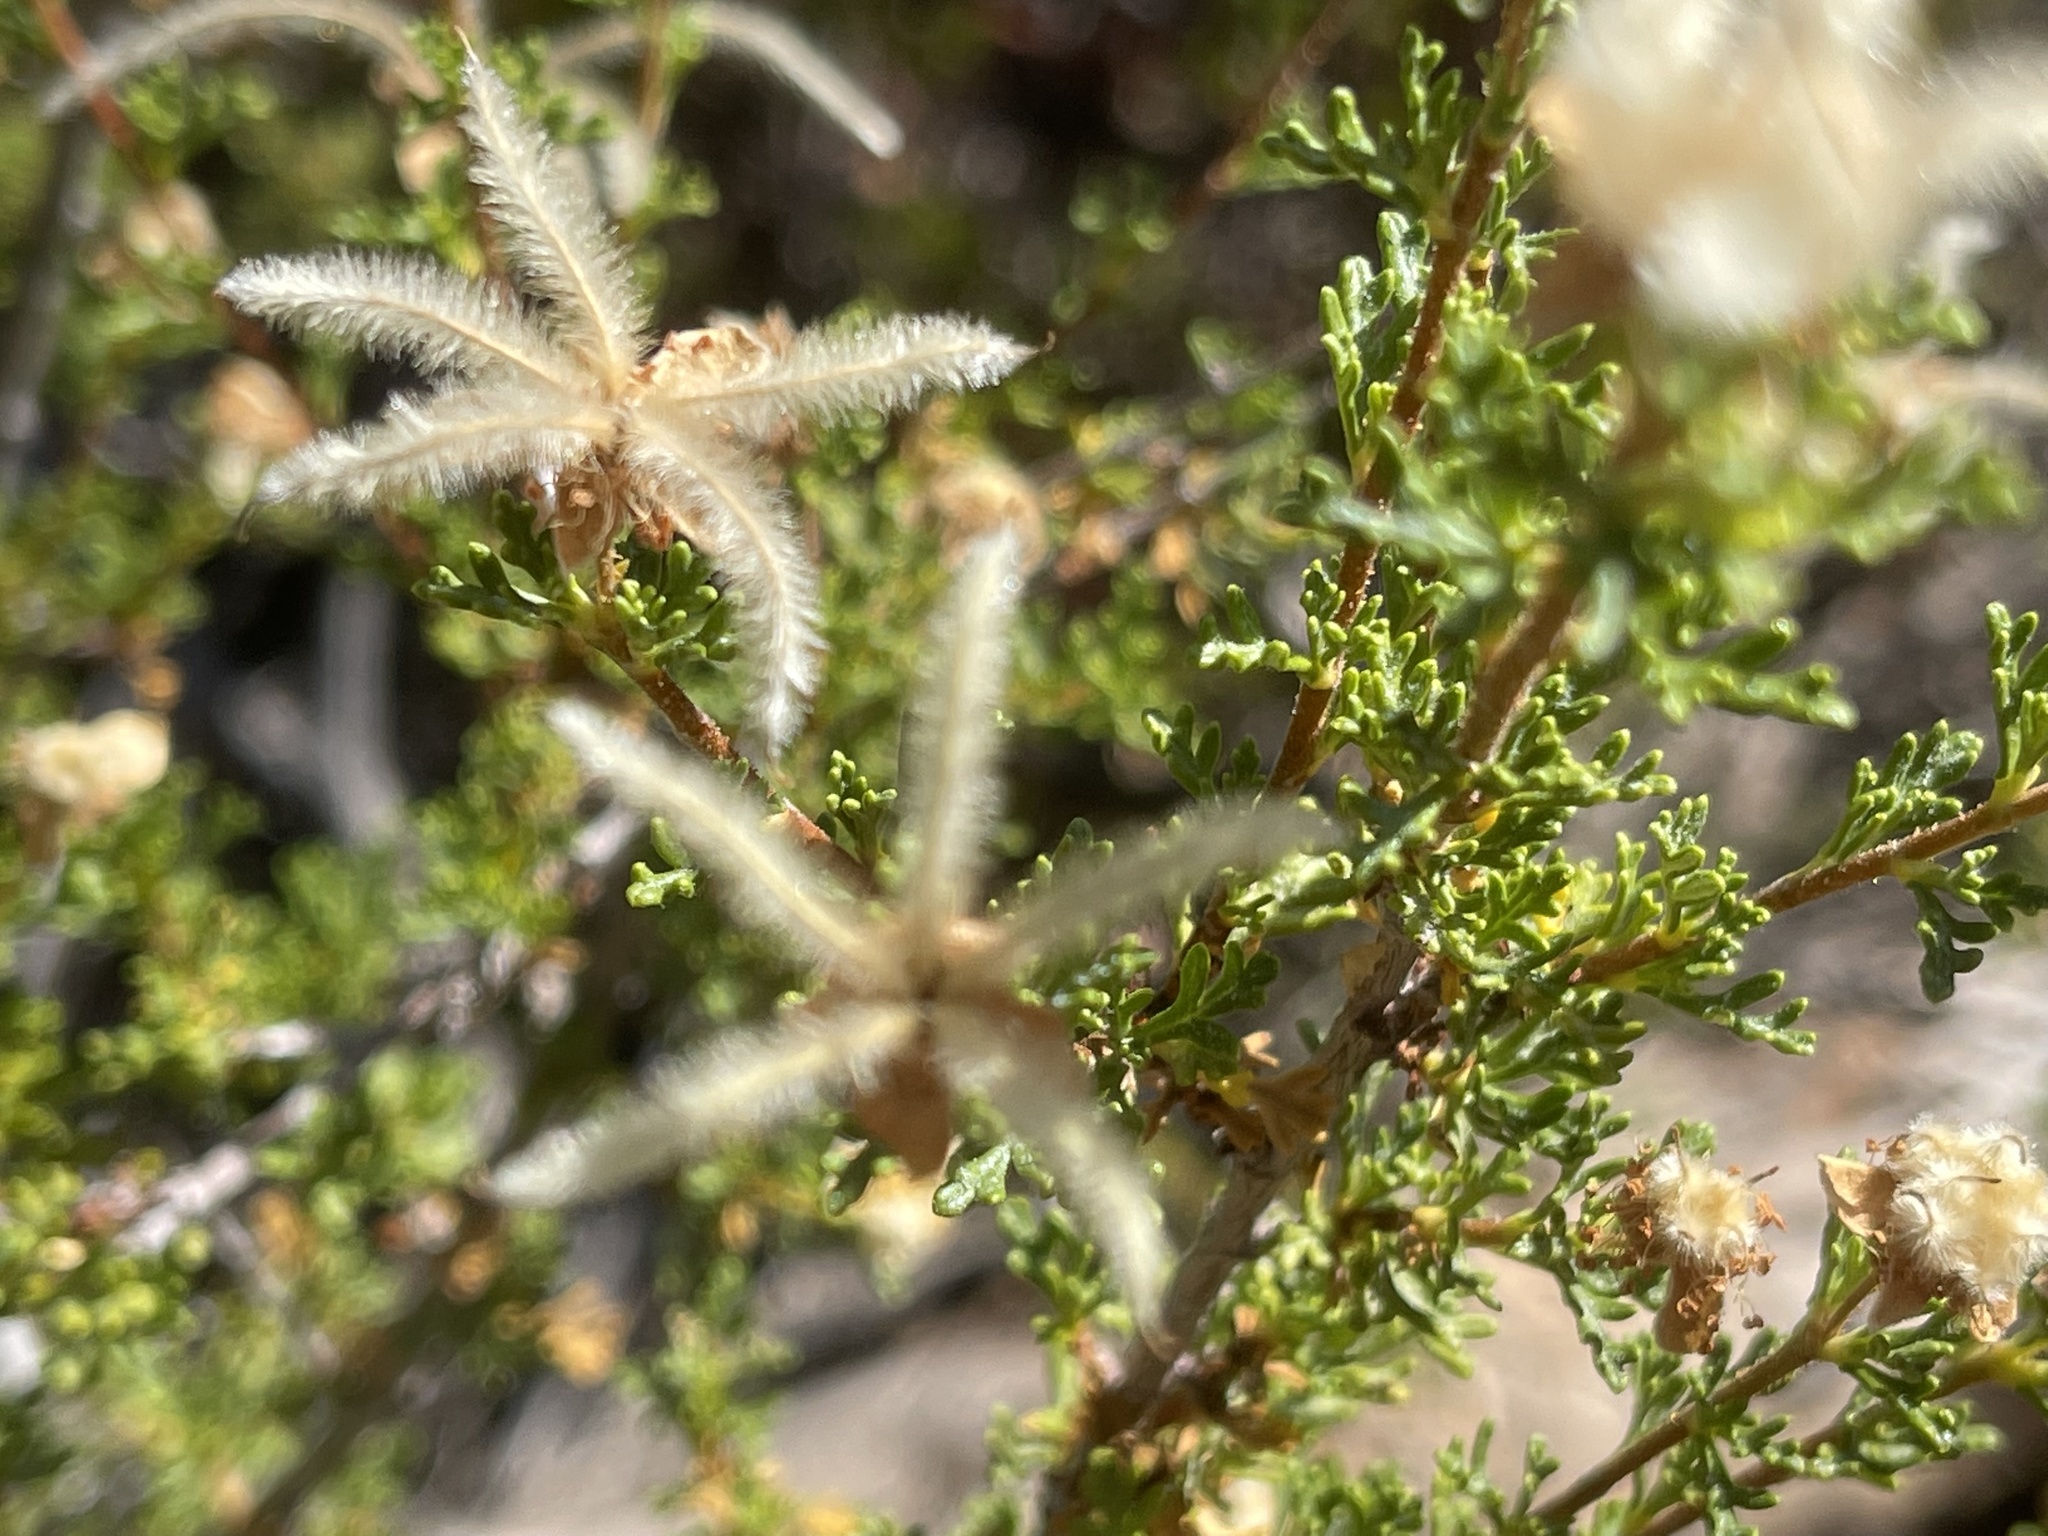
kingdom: Plantae
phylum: Tracheophyta
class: Magnoliopsida
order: Rosales
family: Rosaceae
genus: Purshia
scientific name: Purshia stansburiana
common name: Stansbury's cliffrose
